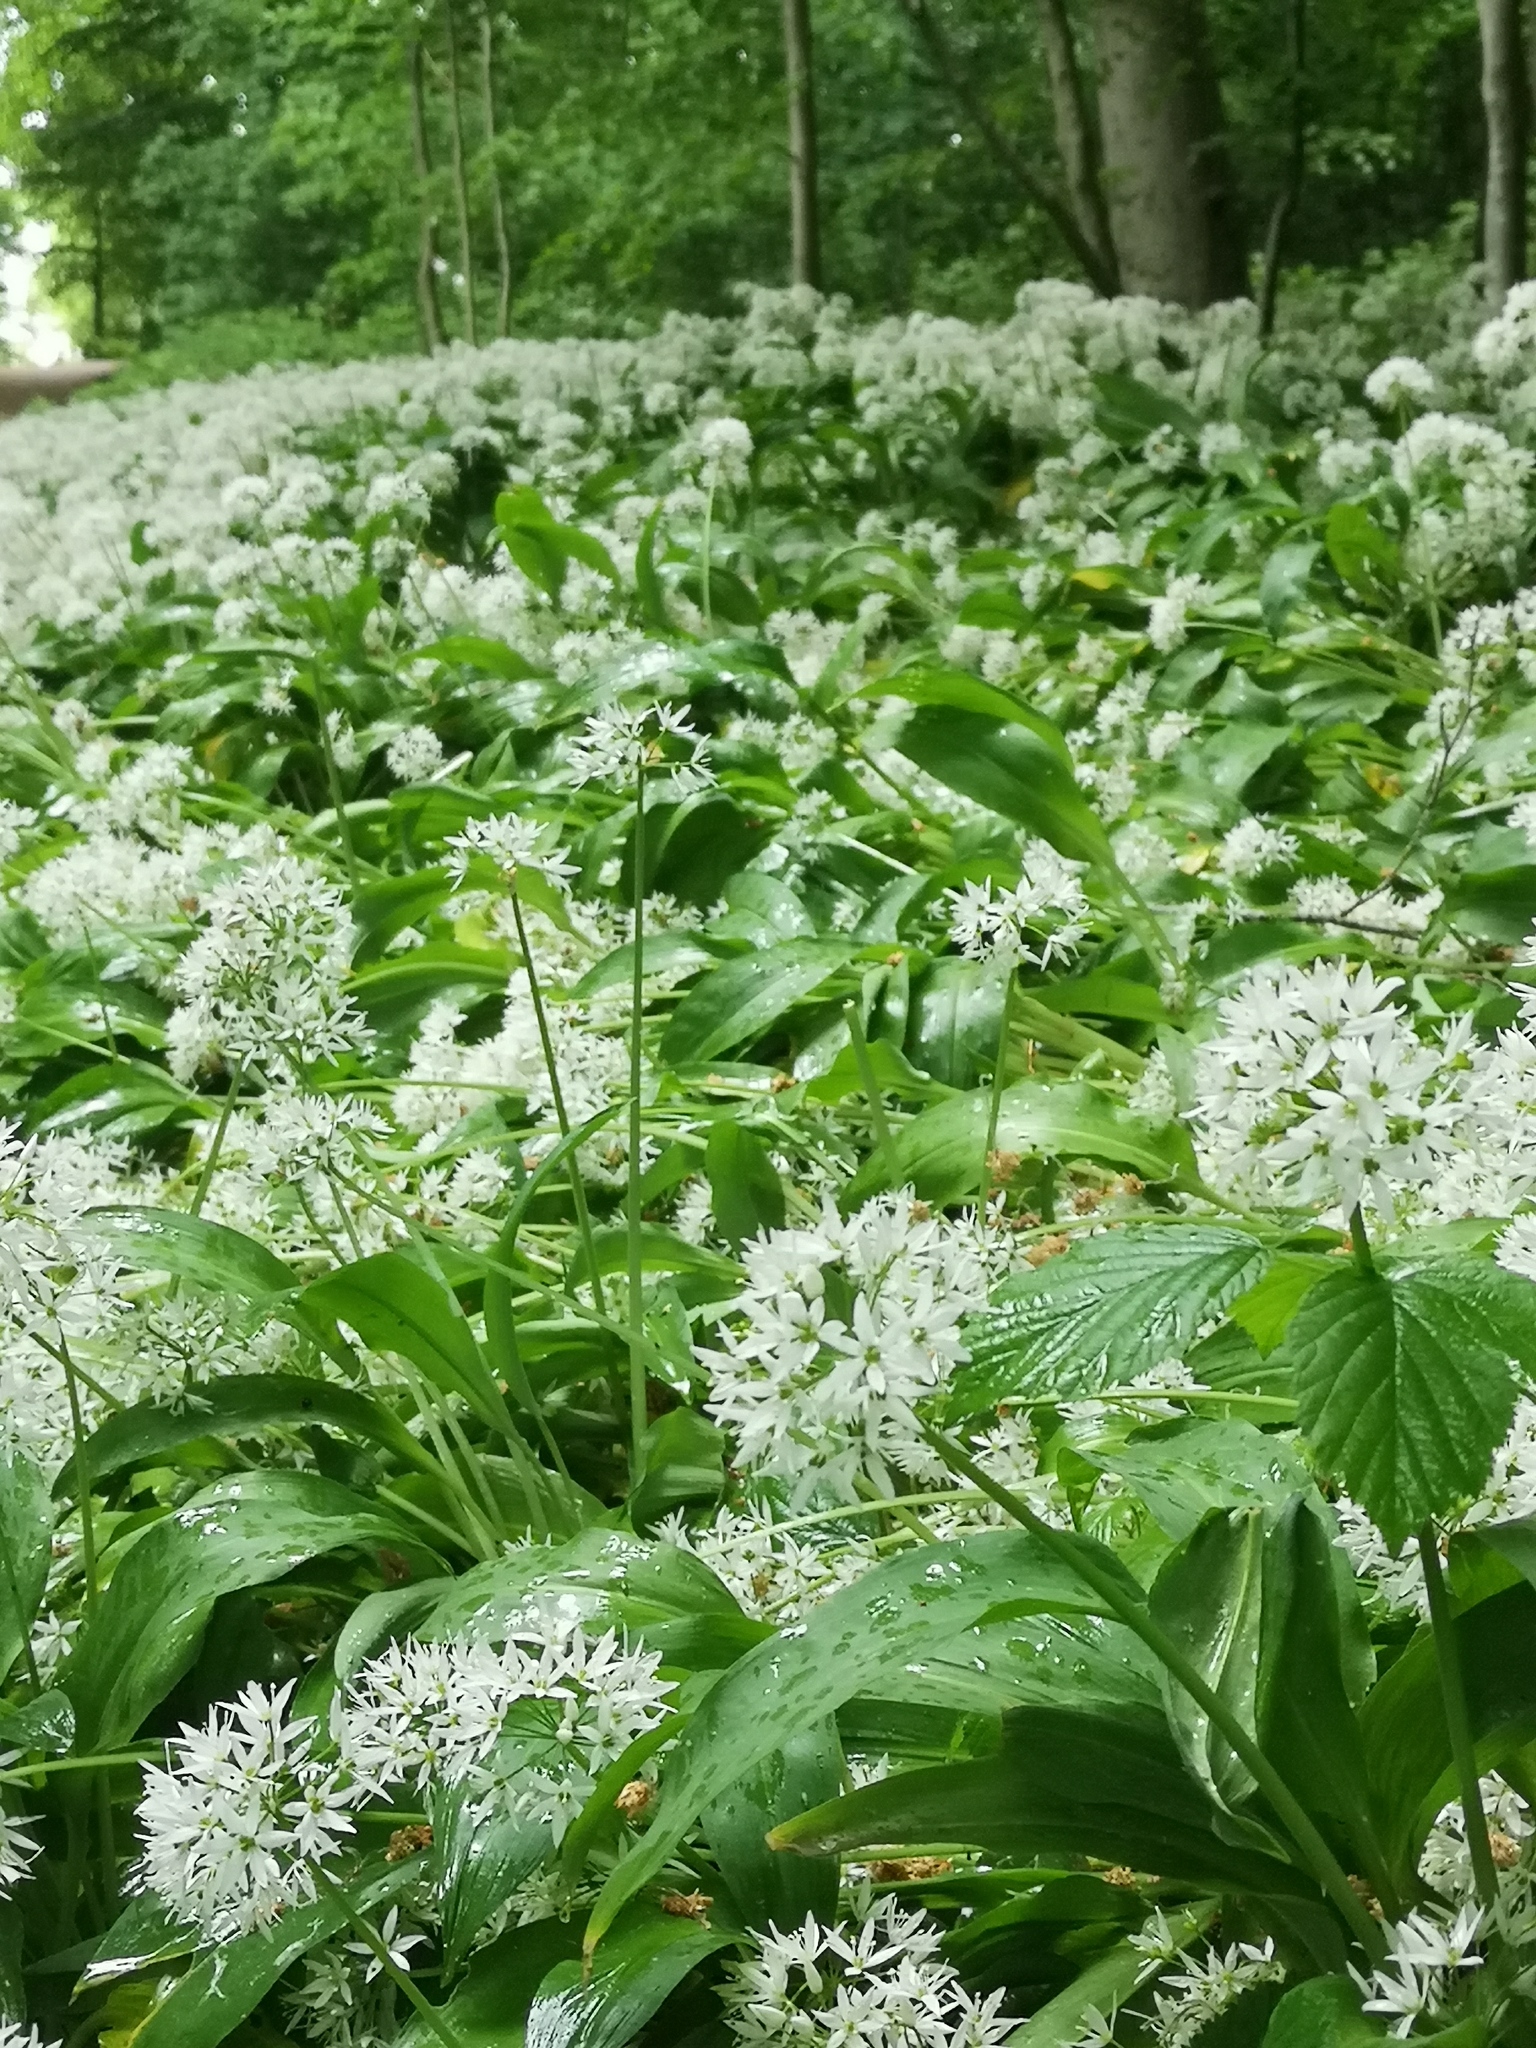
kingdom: Plantae
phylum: Tracheophyta
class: Liliopsida
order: Asparagales
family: Amaryllidaceae
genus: Allium
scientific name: Allium ursinum
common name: Ramsons
